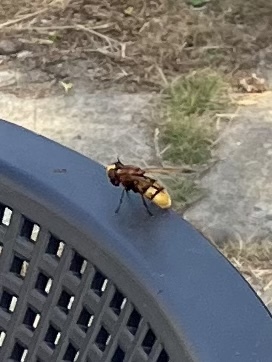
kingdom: Animalia
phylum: Arthropoda
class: Insecta
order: Diptera
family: Syrphidae
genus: Volucella
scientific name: Volucella zonaria
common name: Hornet hoverfly
